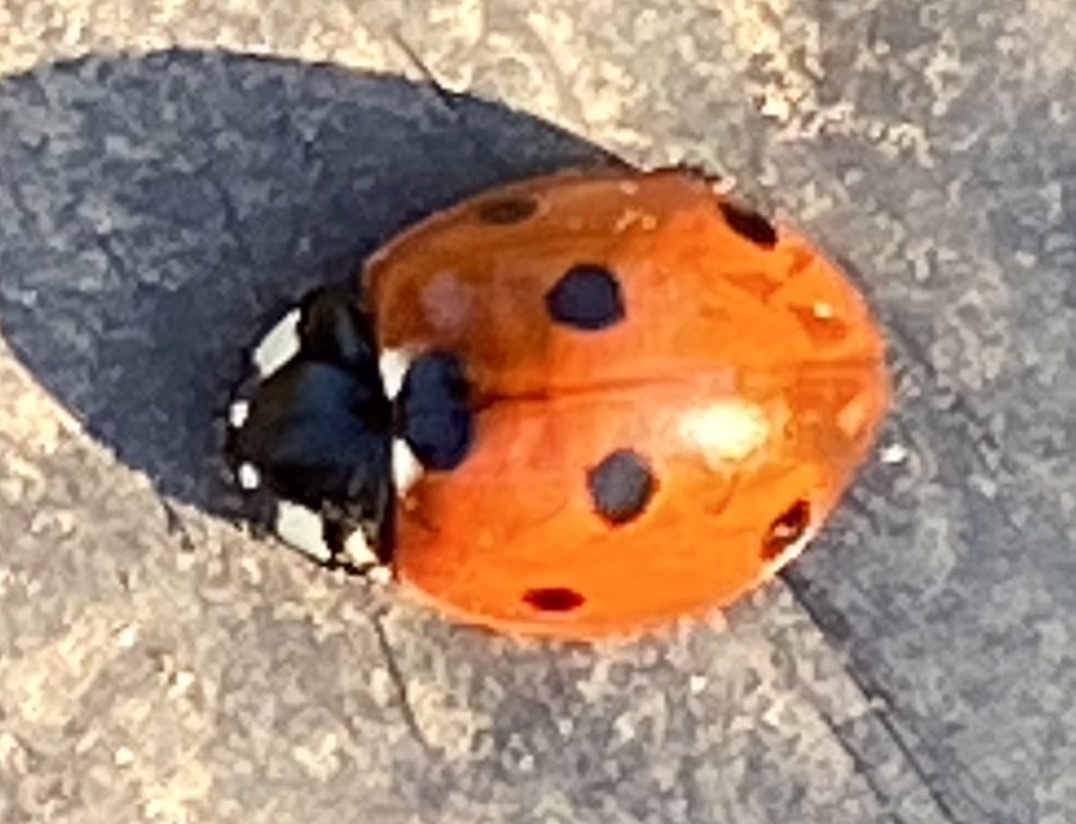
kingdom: Animalia
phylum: Arthropoda
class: Insecta
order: Coleoptera
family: Coccinellidae
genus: Coccinella
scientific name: Coccinella septempunctata
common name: Sevenspotted lady beetle
